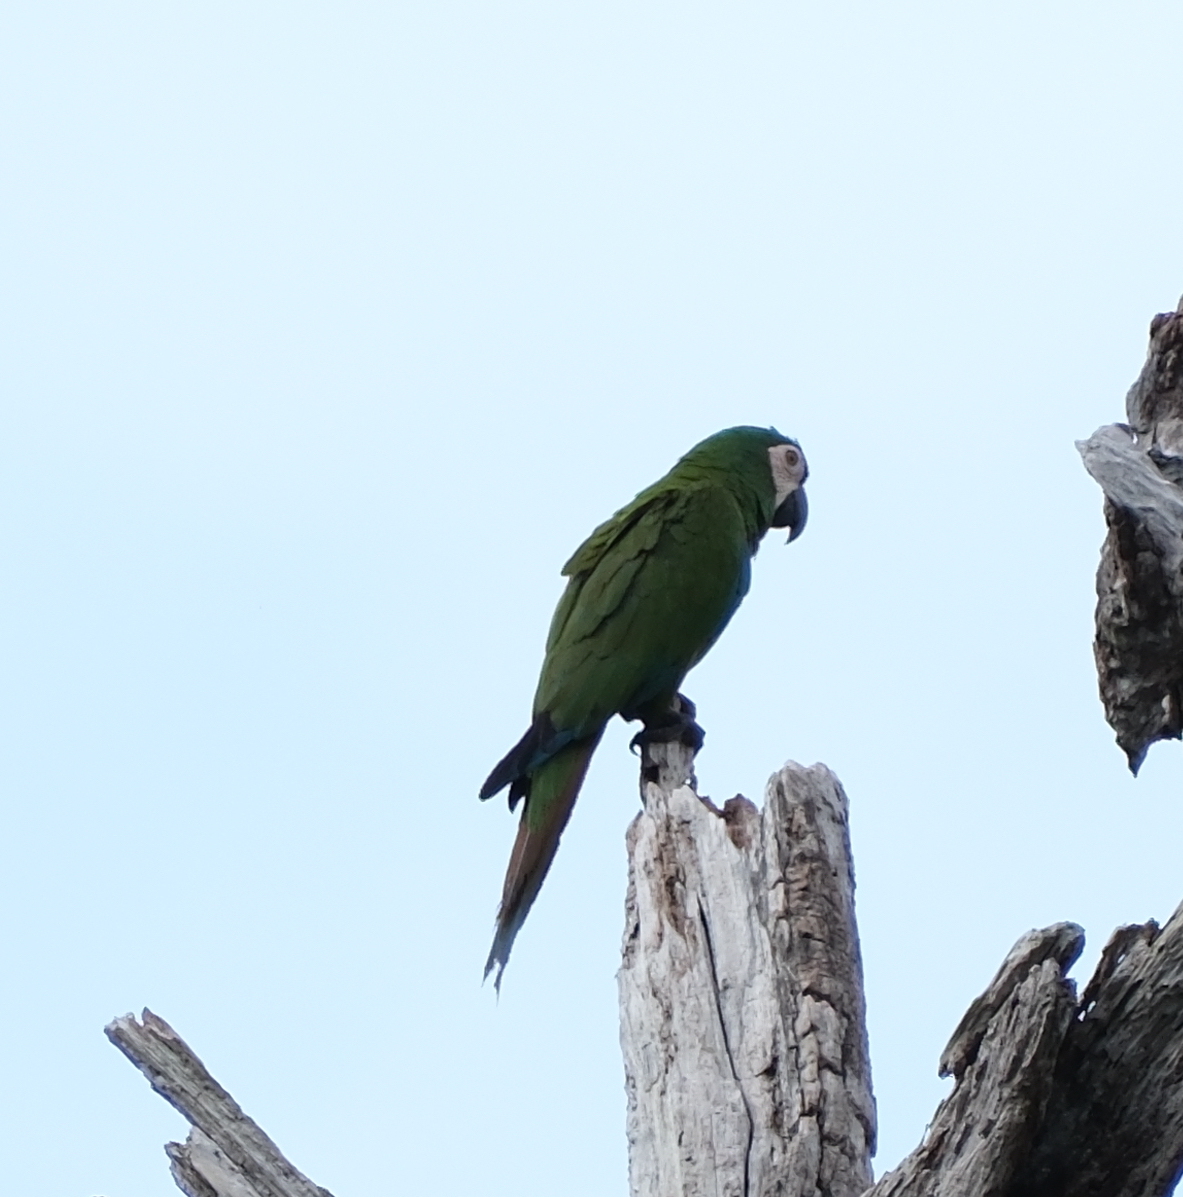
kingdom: Animalia
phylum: Chordata
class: Aves
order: Psittaciformes
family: Psittacidae
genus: Ara
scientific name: Ara severus
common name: Chestnut-fronted macaw
